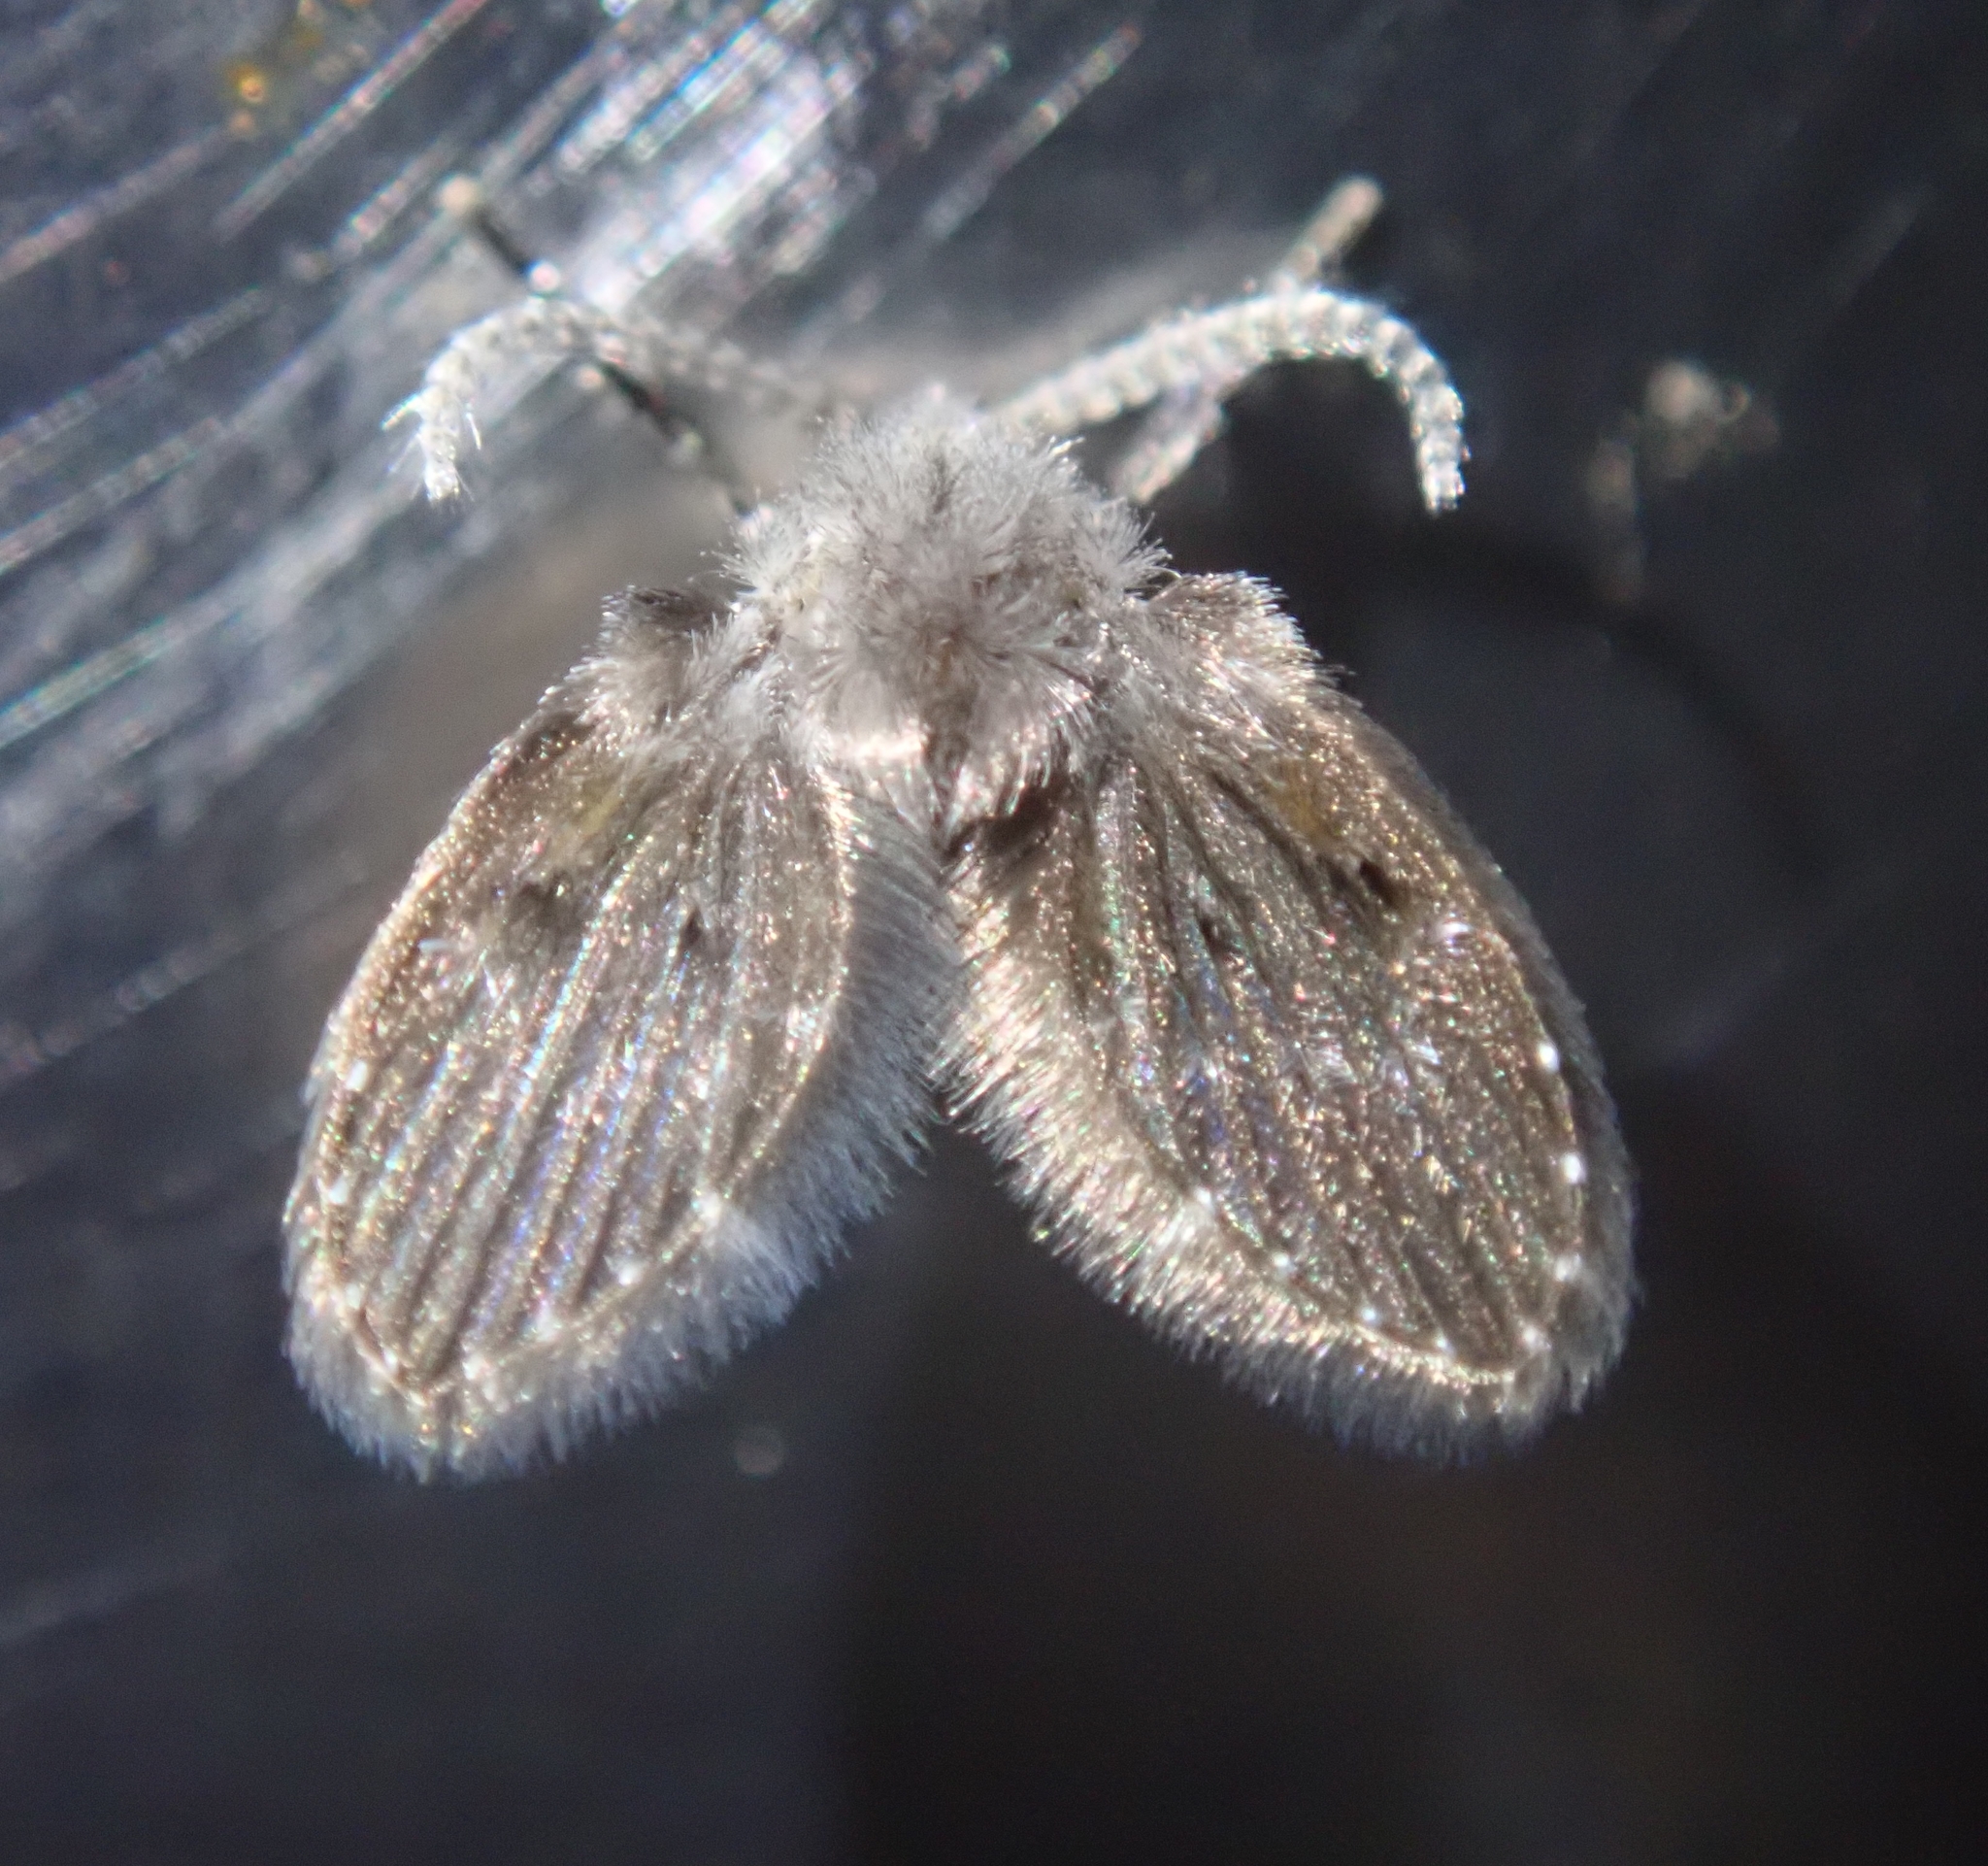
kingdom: Animalia
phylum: Arthropoda
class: Insecta
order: Diptera
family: Psychodidae
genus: Clogmia
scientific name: Clogmia albipunctatus
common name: White-spotted moth fly
